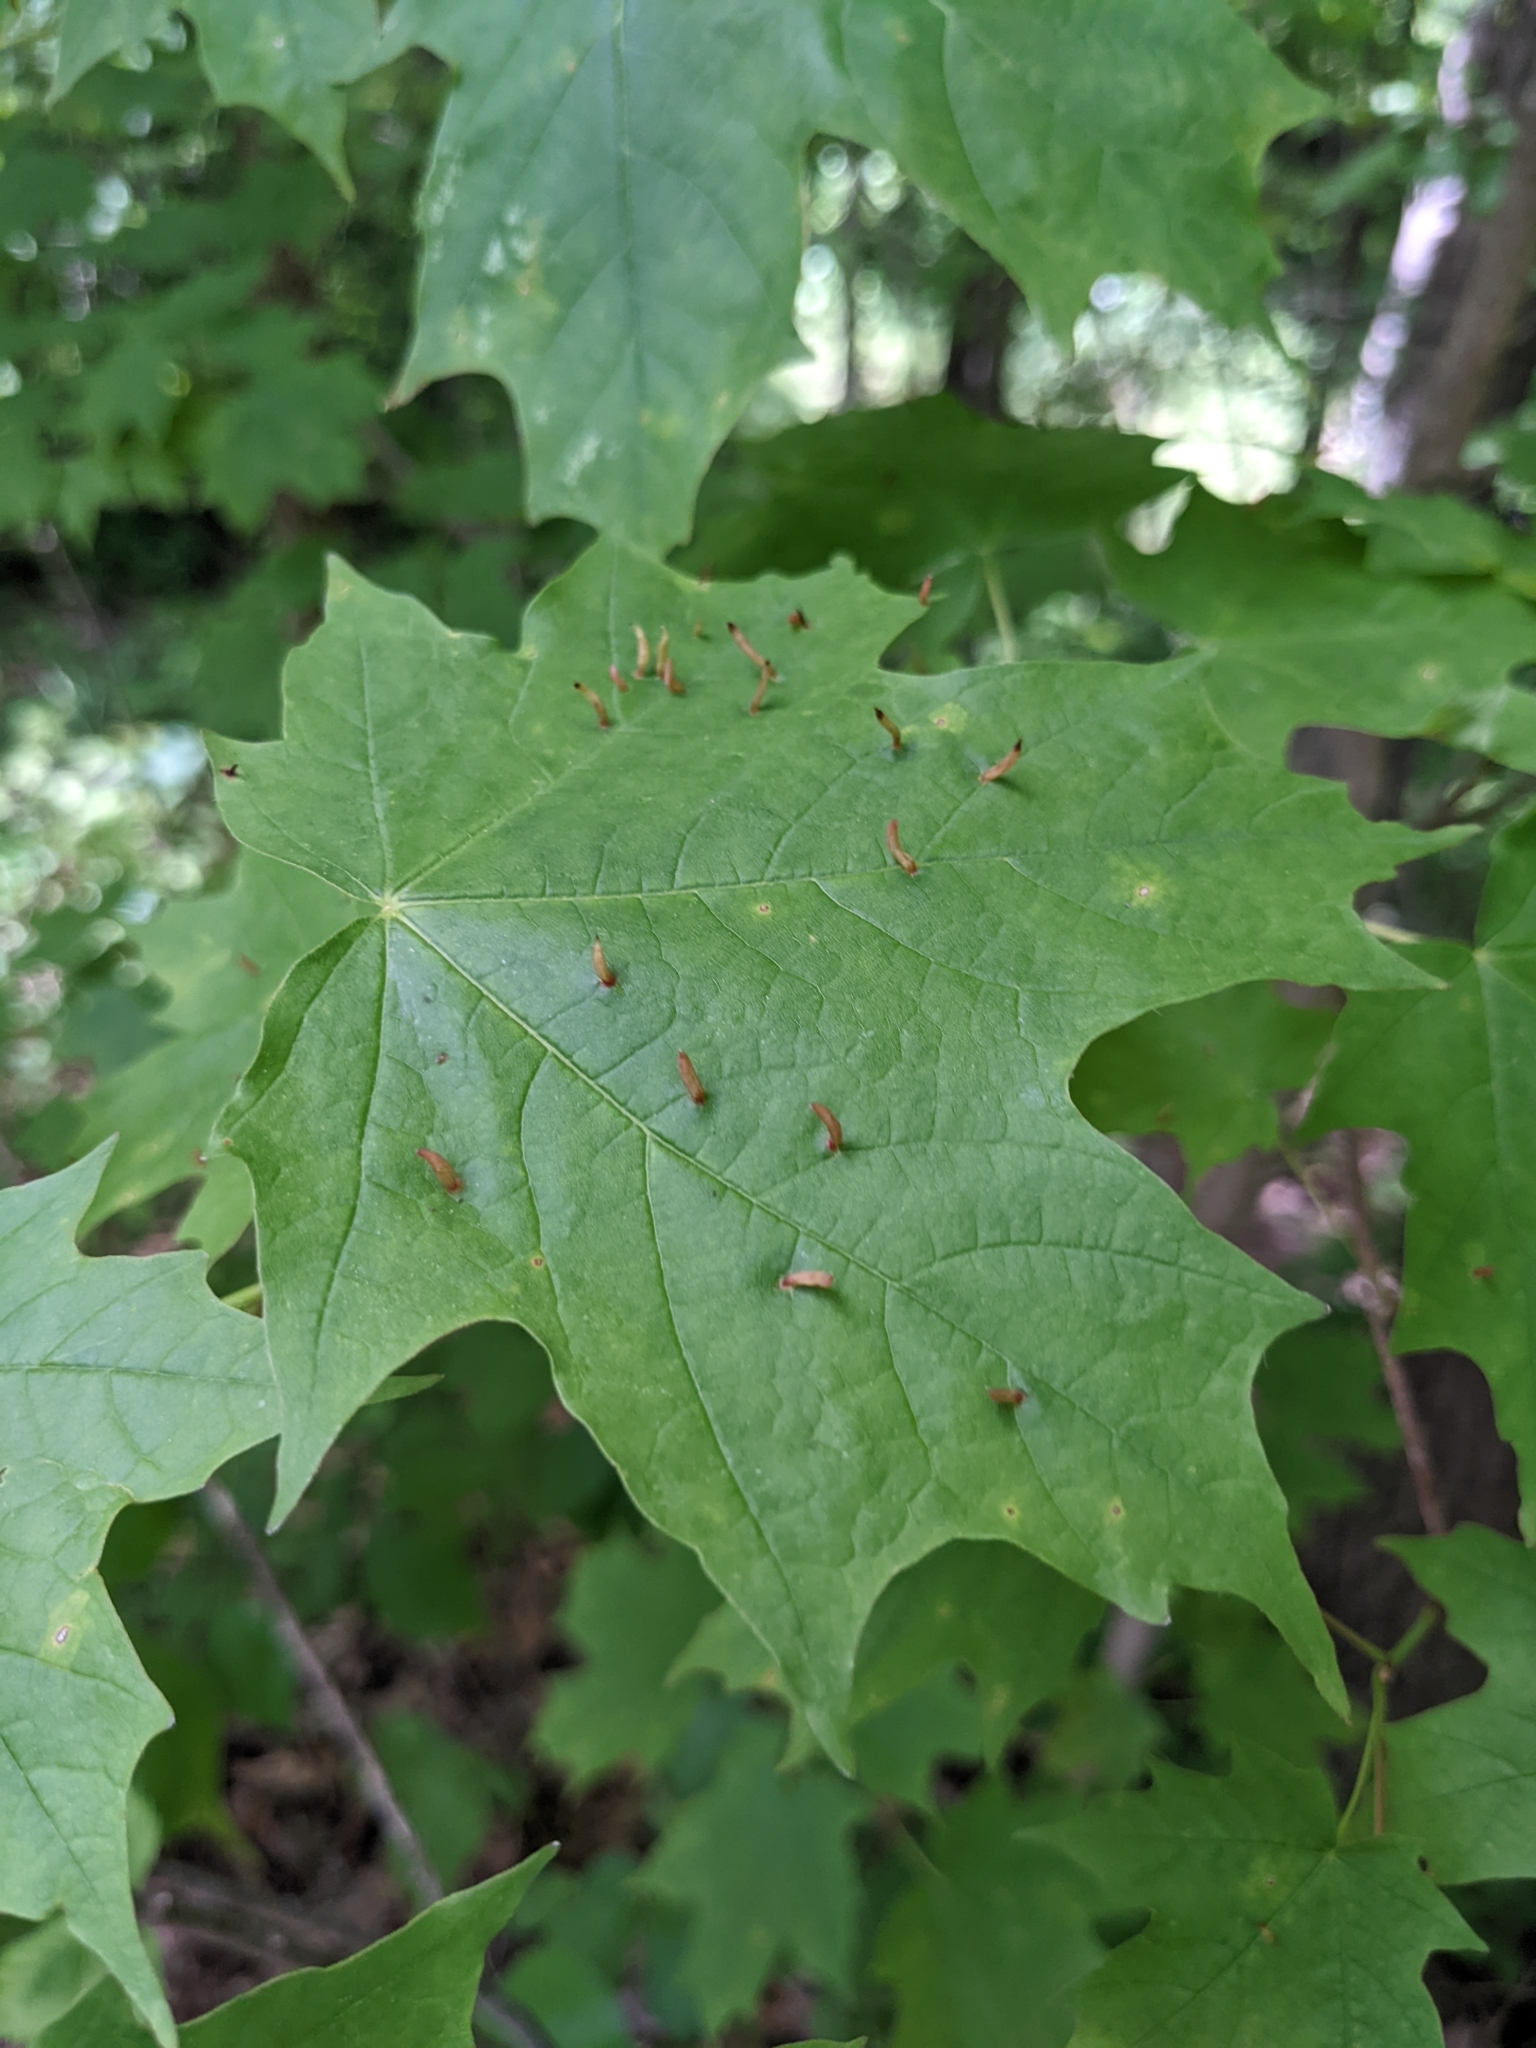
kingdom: Animalia
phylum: Arthropoda
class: Arachnida
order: Trombidiformes
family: Eriophyidae
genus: Vasates
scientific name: Vasates aceriscrumena
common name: Maple spindle gall mite
